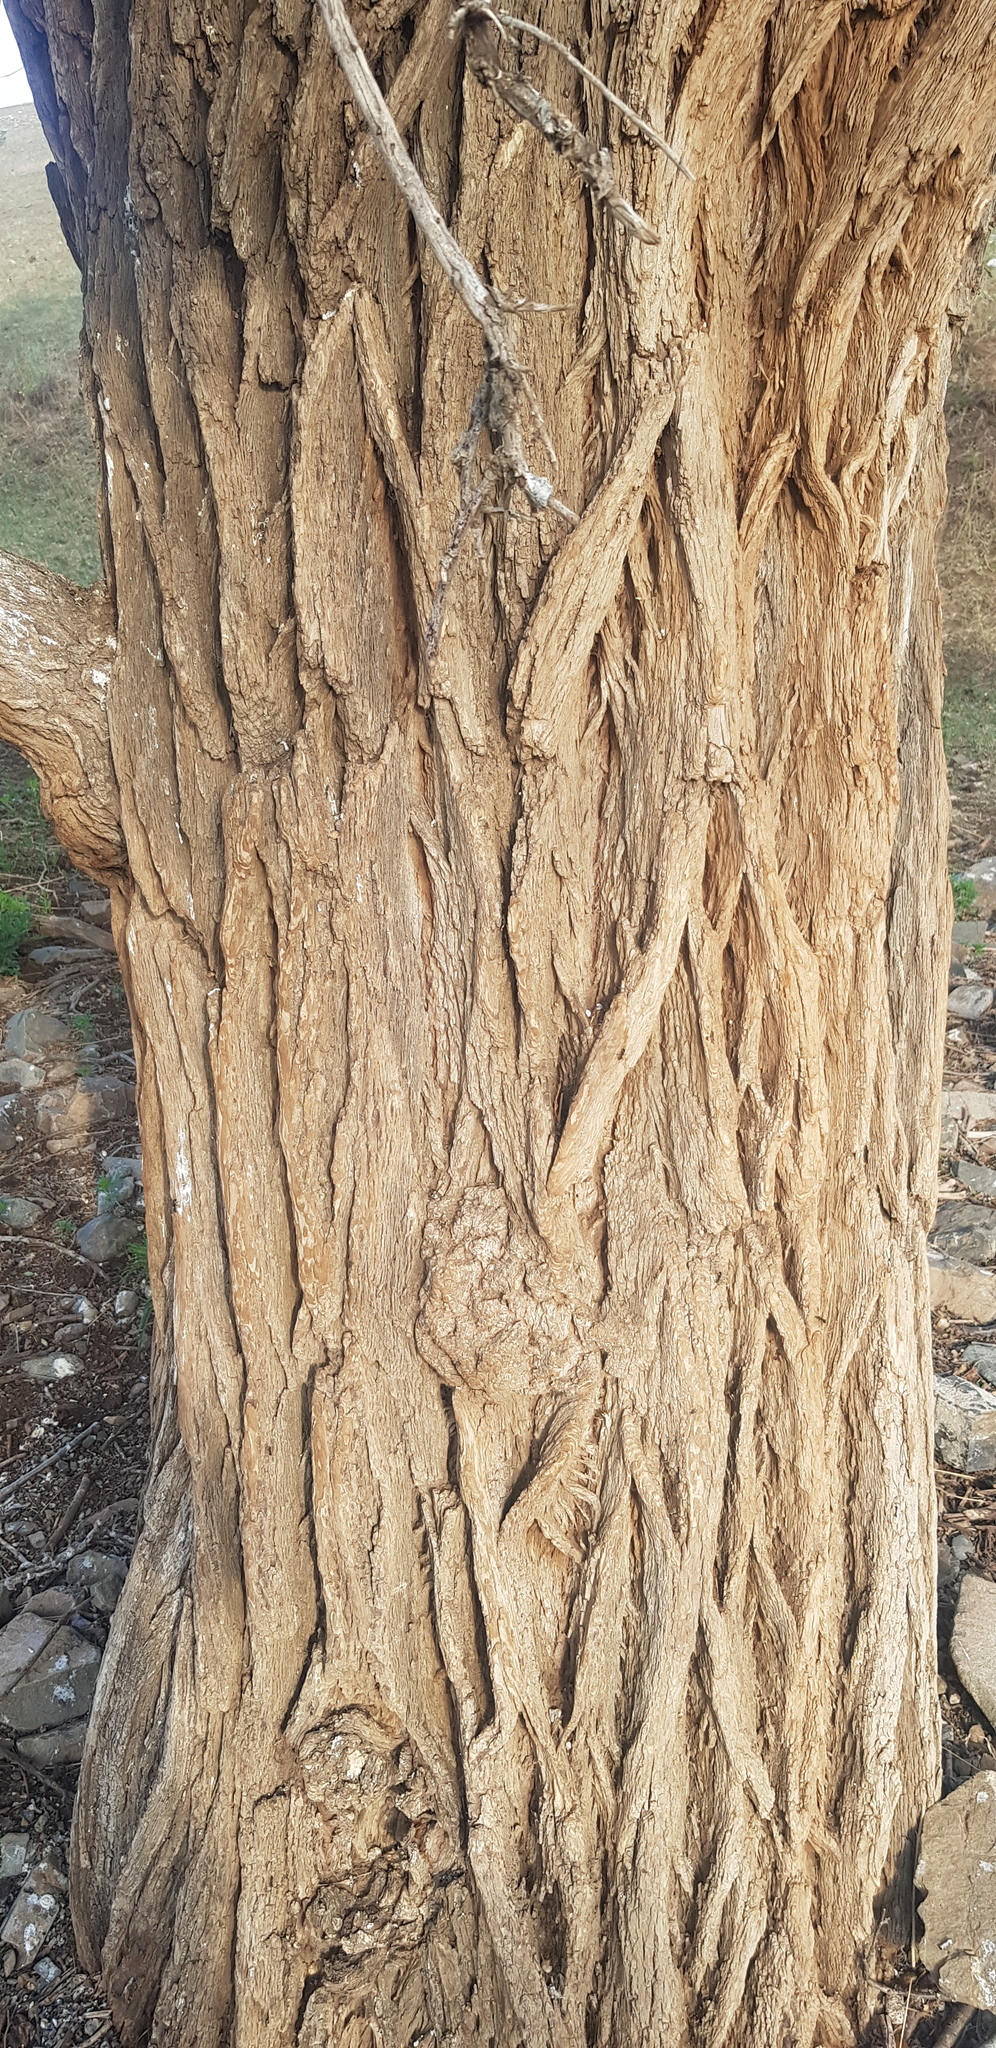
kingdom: Plantae
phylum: Tracheophyta
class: Magnoliopsida
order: Rosales
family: Ulmaceae
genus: Ulmus
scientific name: Ulmus pumila
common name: Siberian elm
